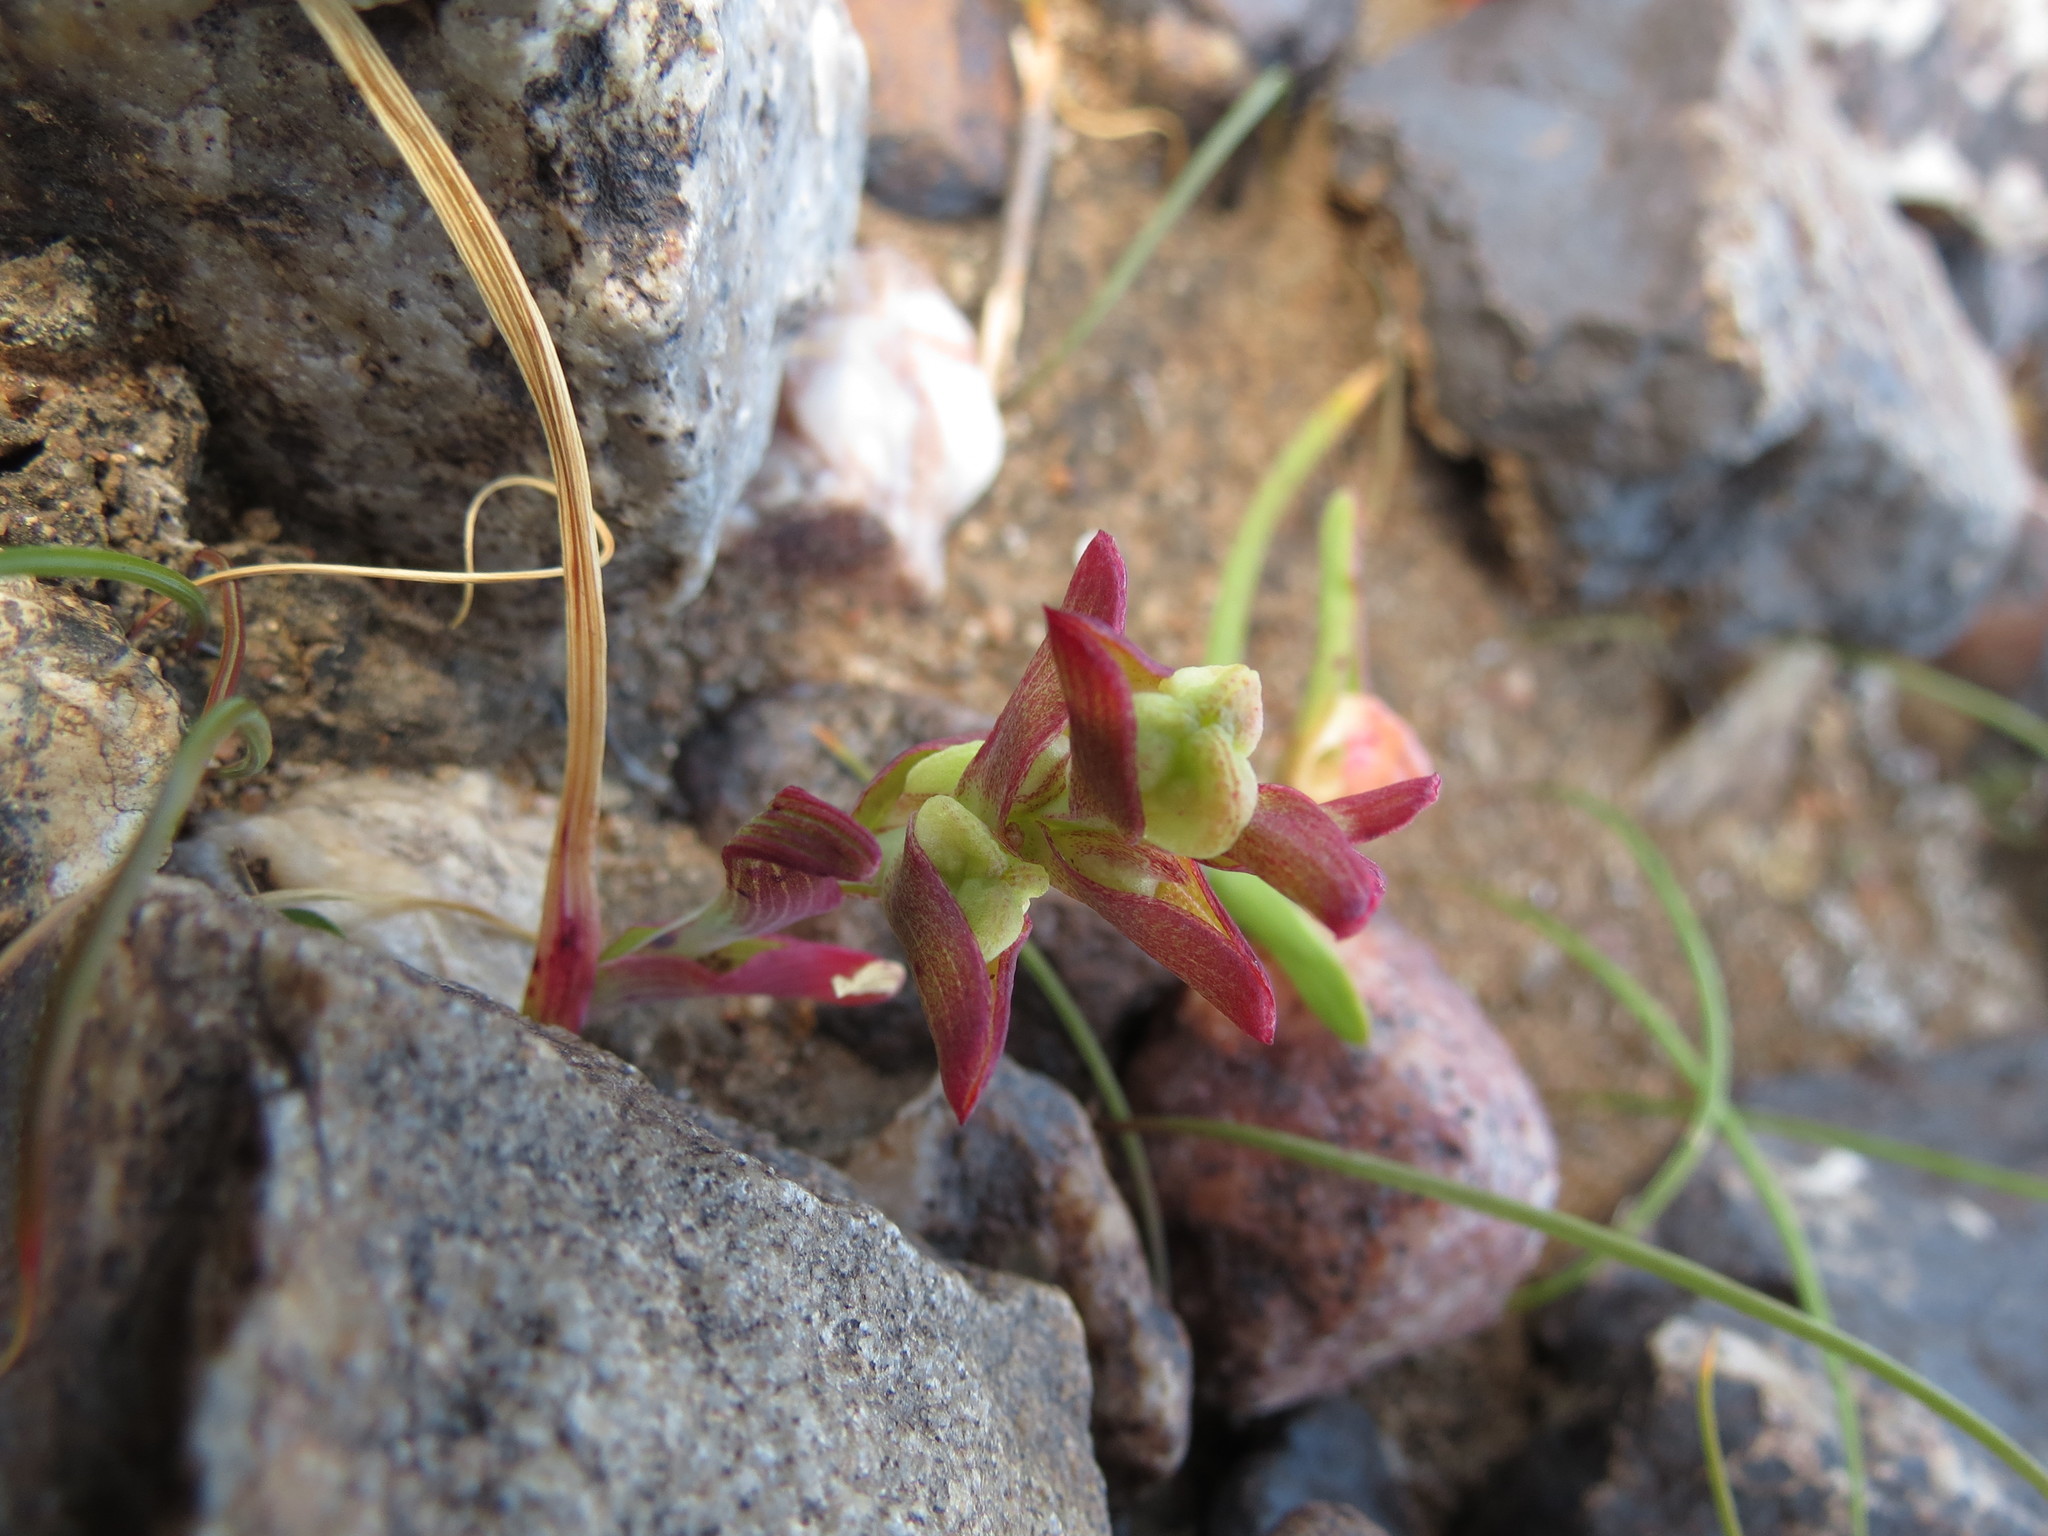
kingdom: Plantae
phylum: Tracheophyta
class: Liliopsida
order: Asparagales
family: Iridaceae
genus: Lapeirousia
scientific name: Lapeirousia pyramidalis
